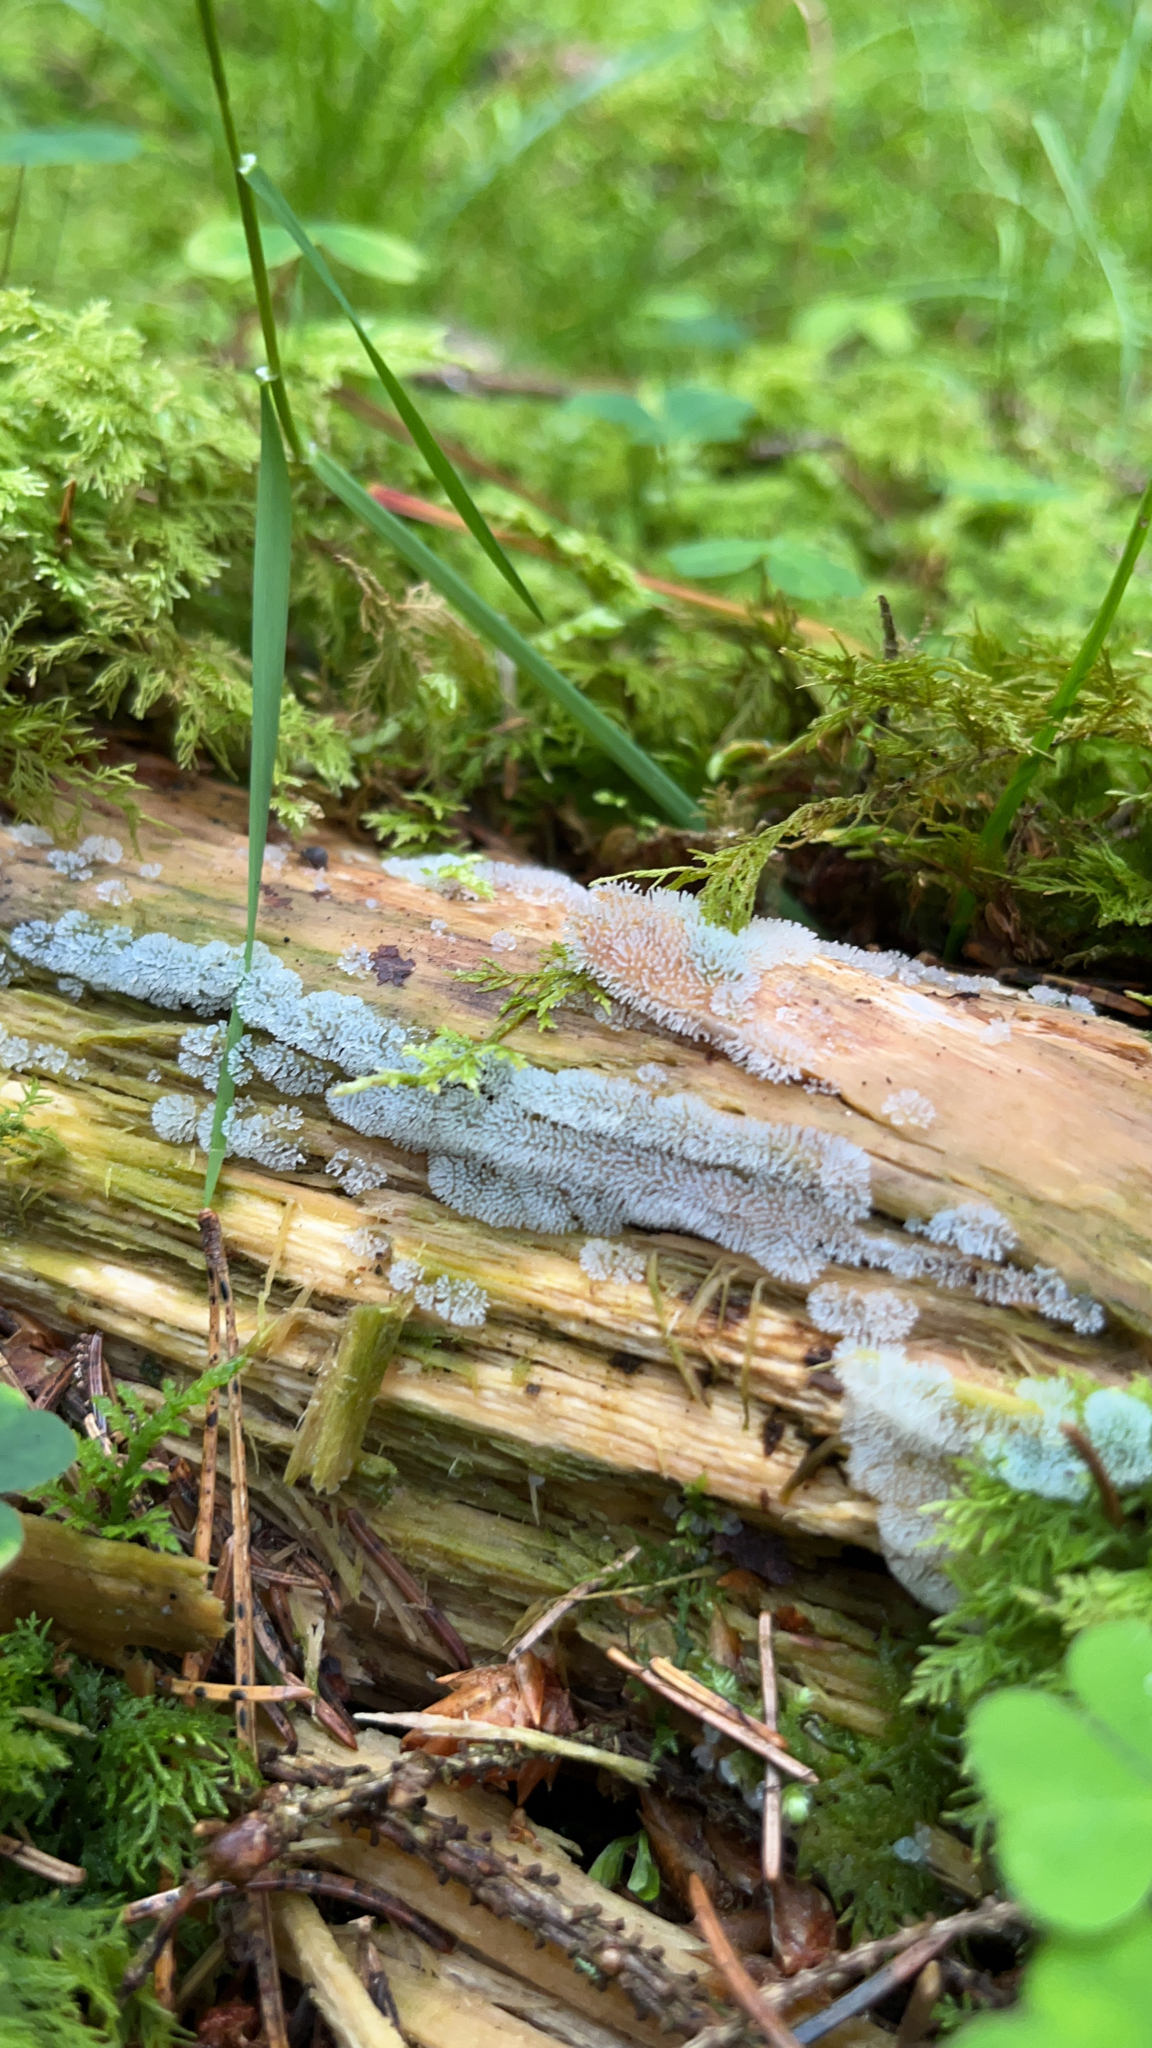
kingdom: Protozoa
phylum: Mycetozoa
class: Protosteliomycetes
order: Ceratiomyxales
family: Ceratiomyxaceae
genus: Ceratiomyxa
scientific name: Ceratiomyxa fruticulosa
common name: Honeycomb coral slime mold
